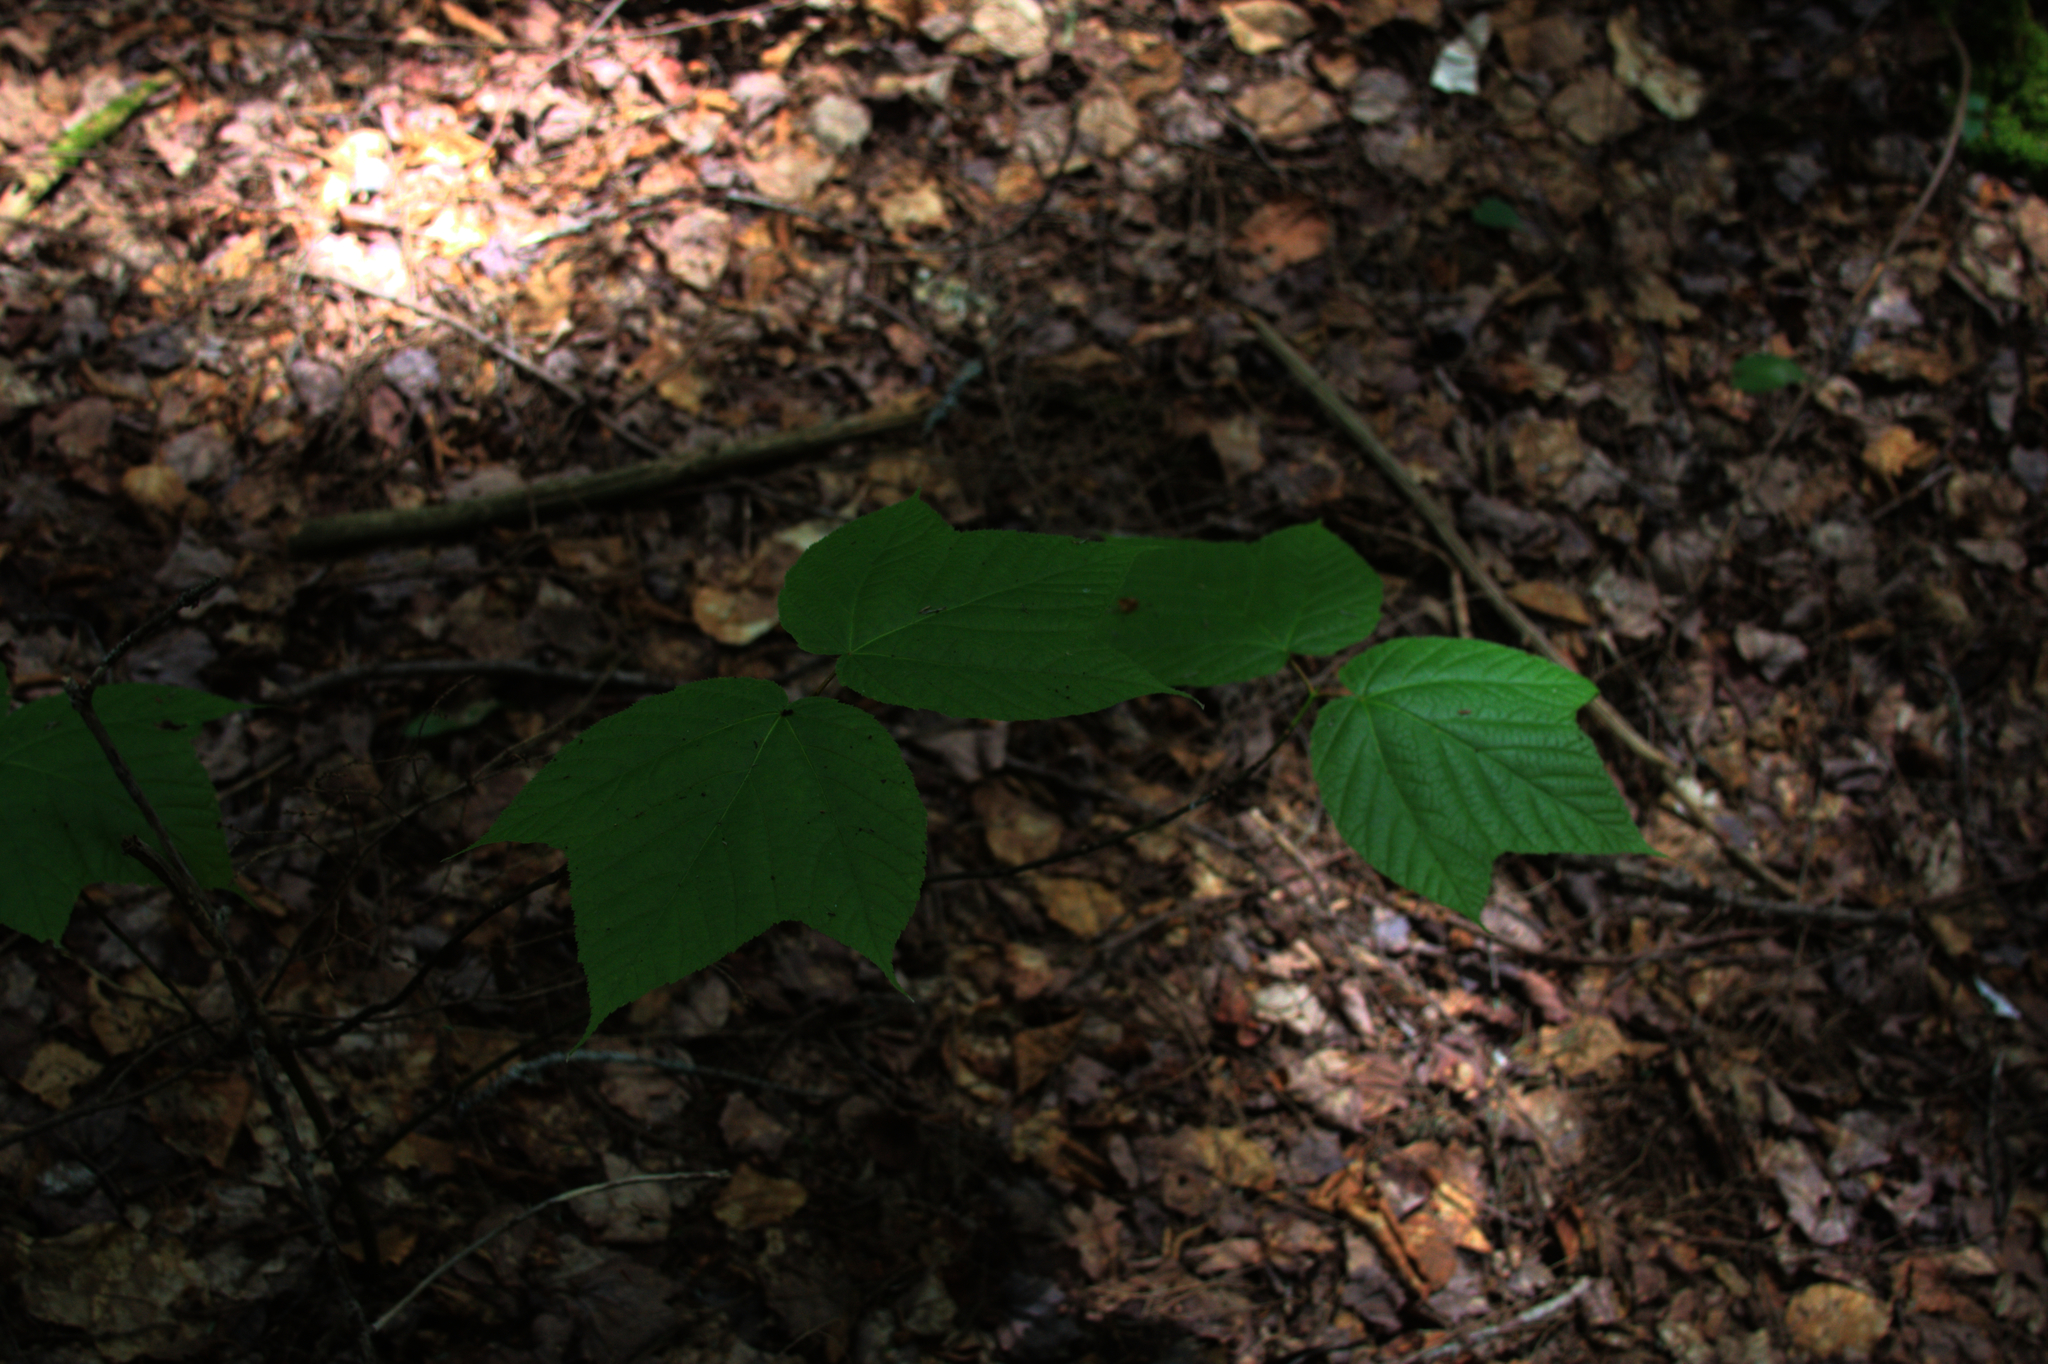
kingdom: Plantae
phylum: Tracheophyta
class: Magnoliopsida
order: Sapindales
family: Sapindaceae
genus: Acer
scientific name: Acer pensylvanicum
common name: Moosewood
